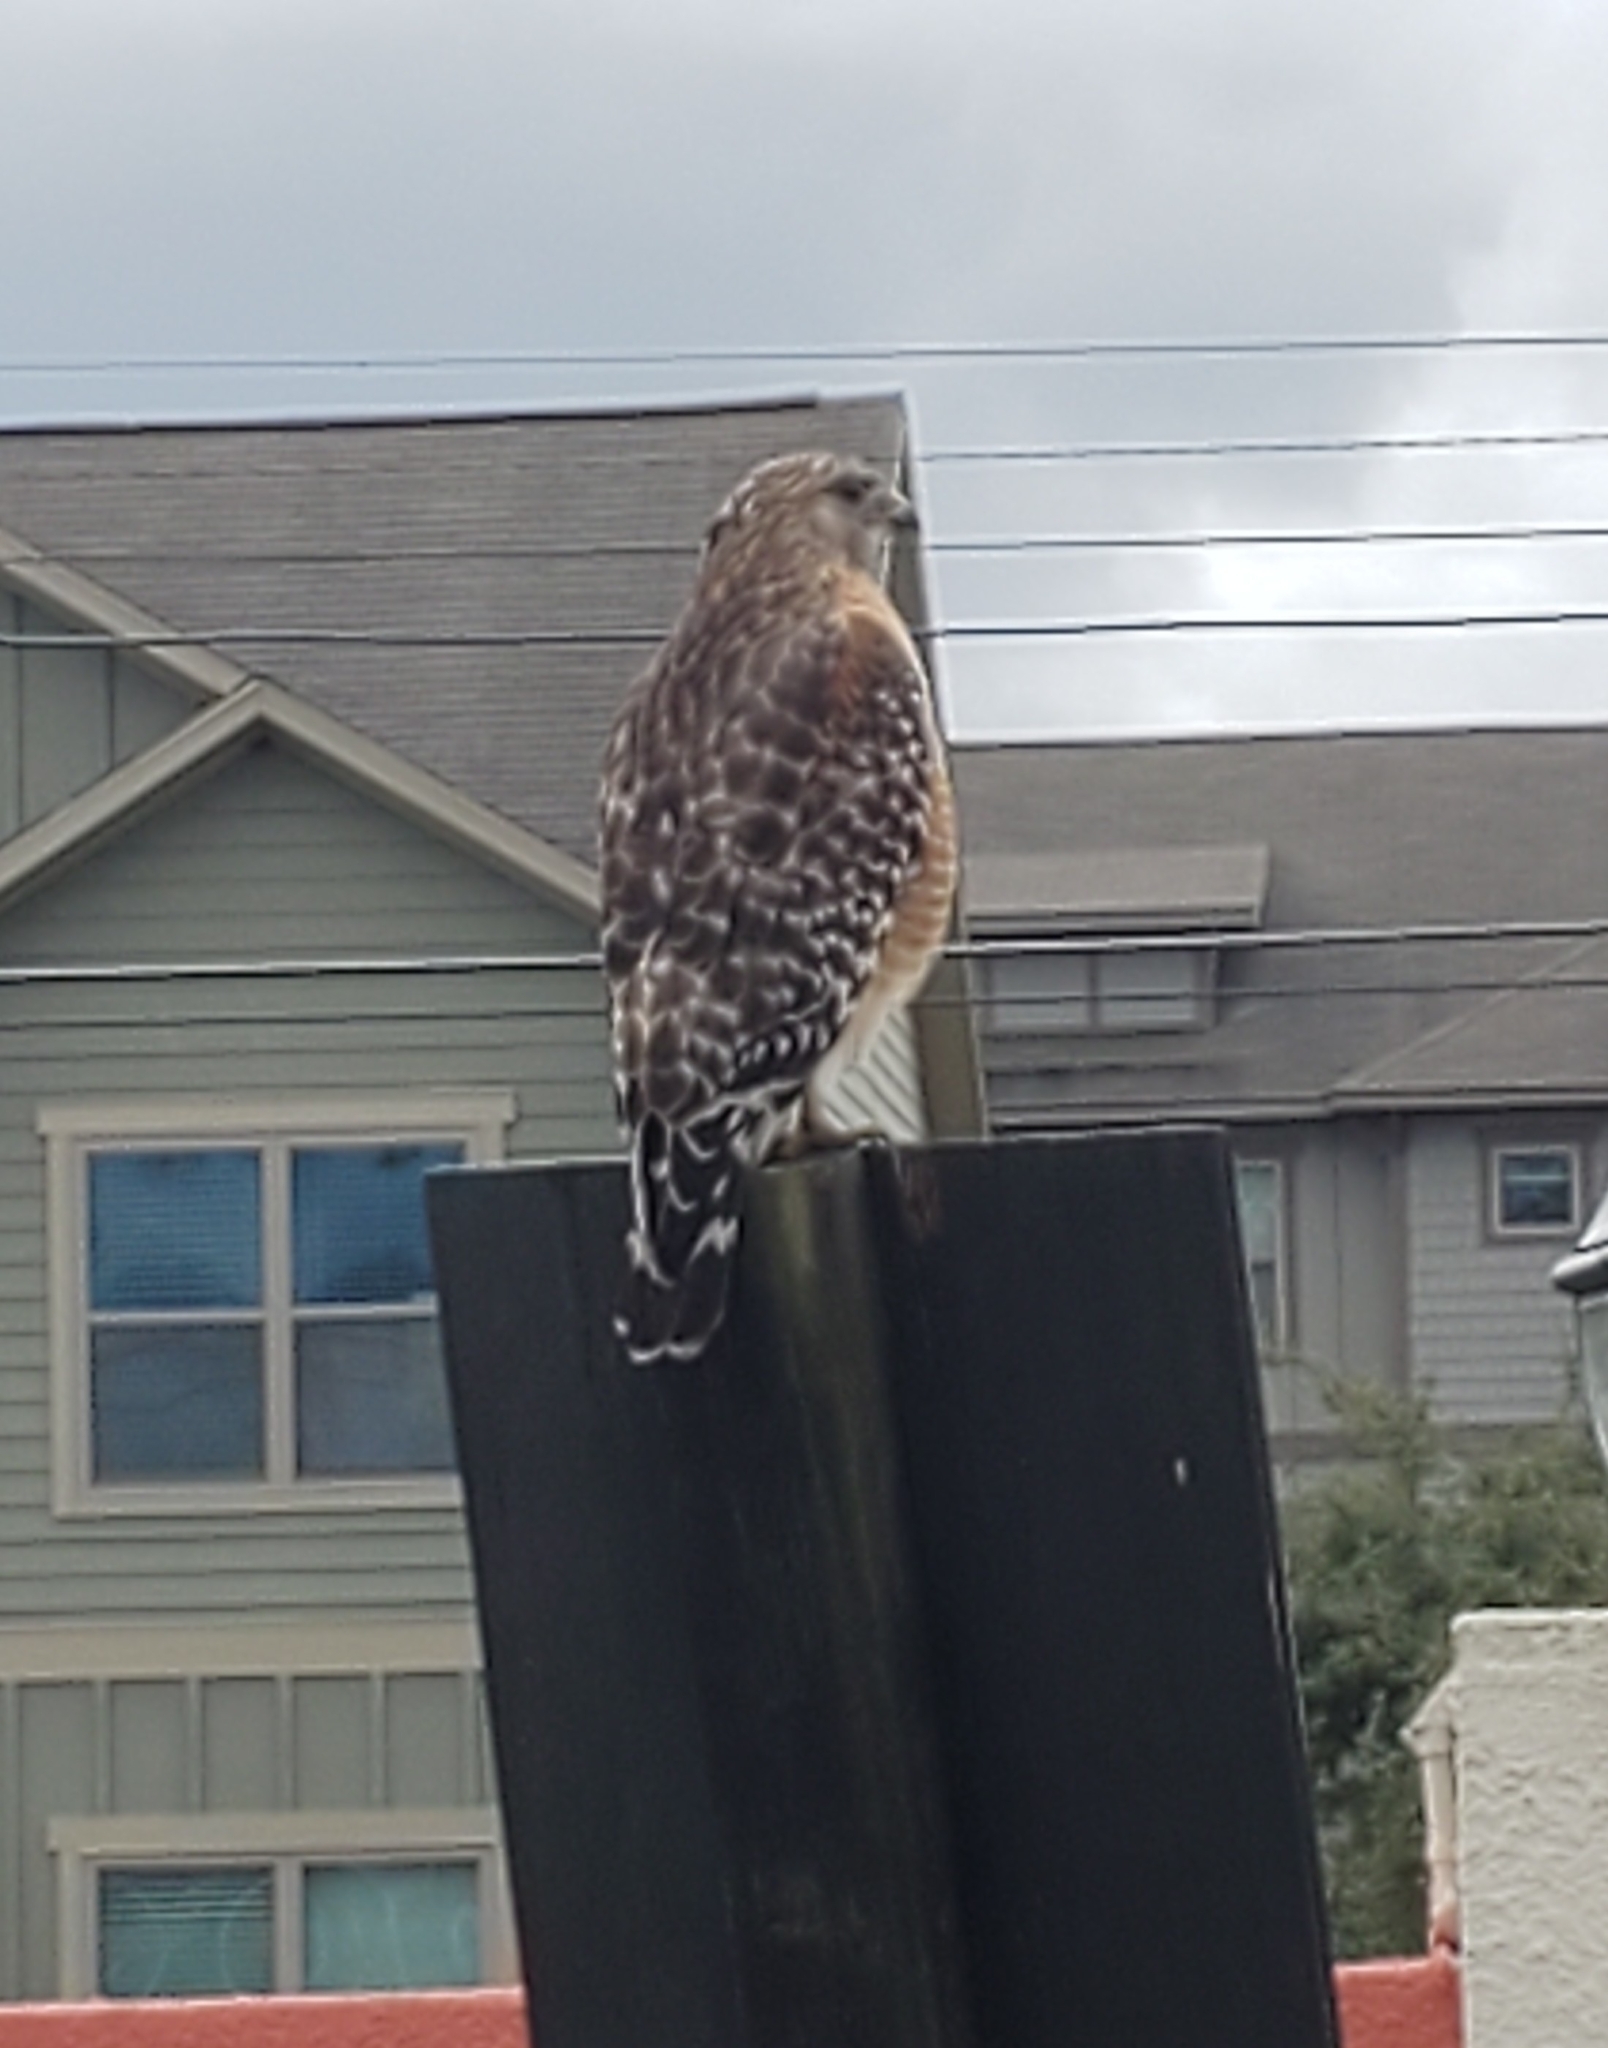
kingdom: Animalia
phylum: Chordata
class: Aves
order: Accipitriformes
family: Accipitridae
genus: Buteo
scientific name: Buteo lineatus
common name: Red-shouldered hawk
